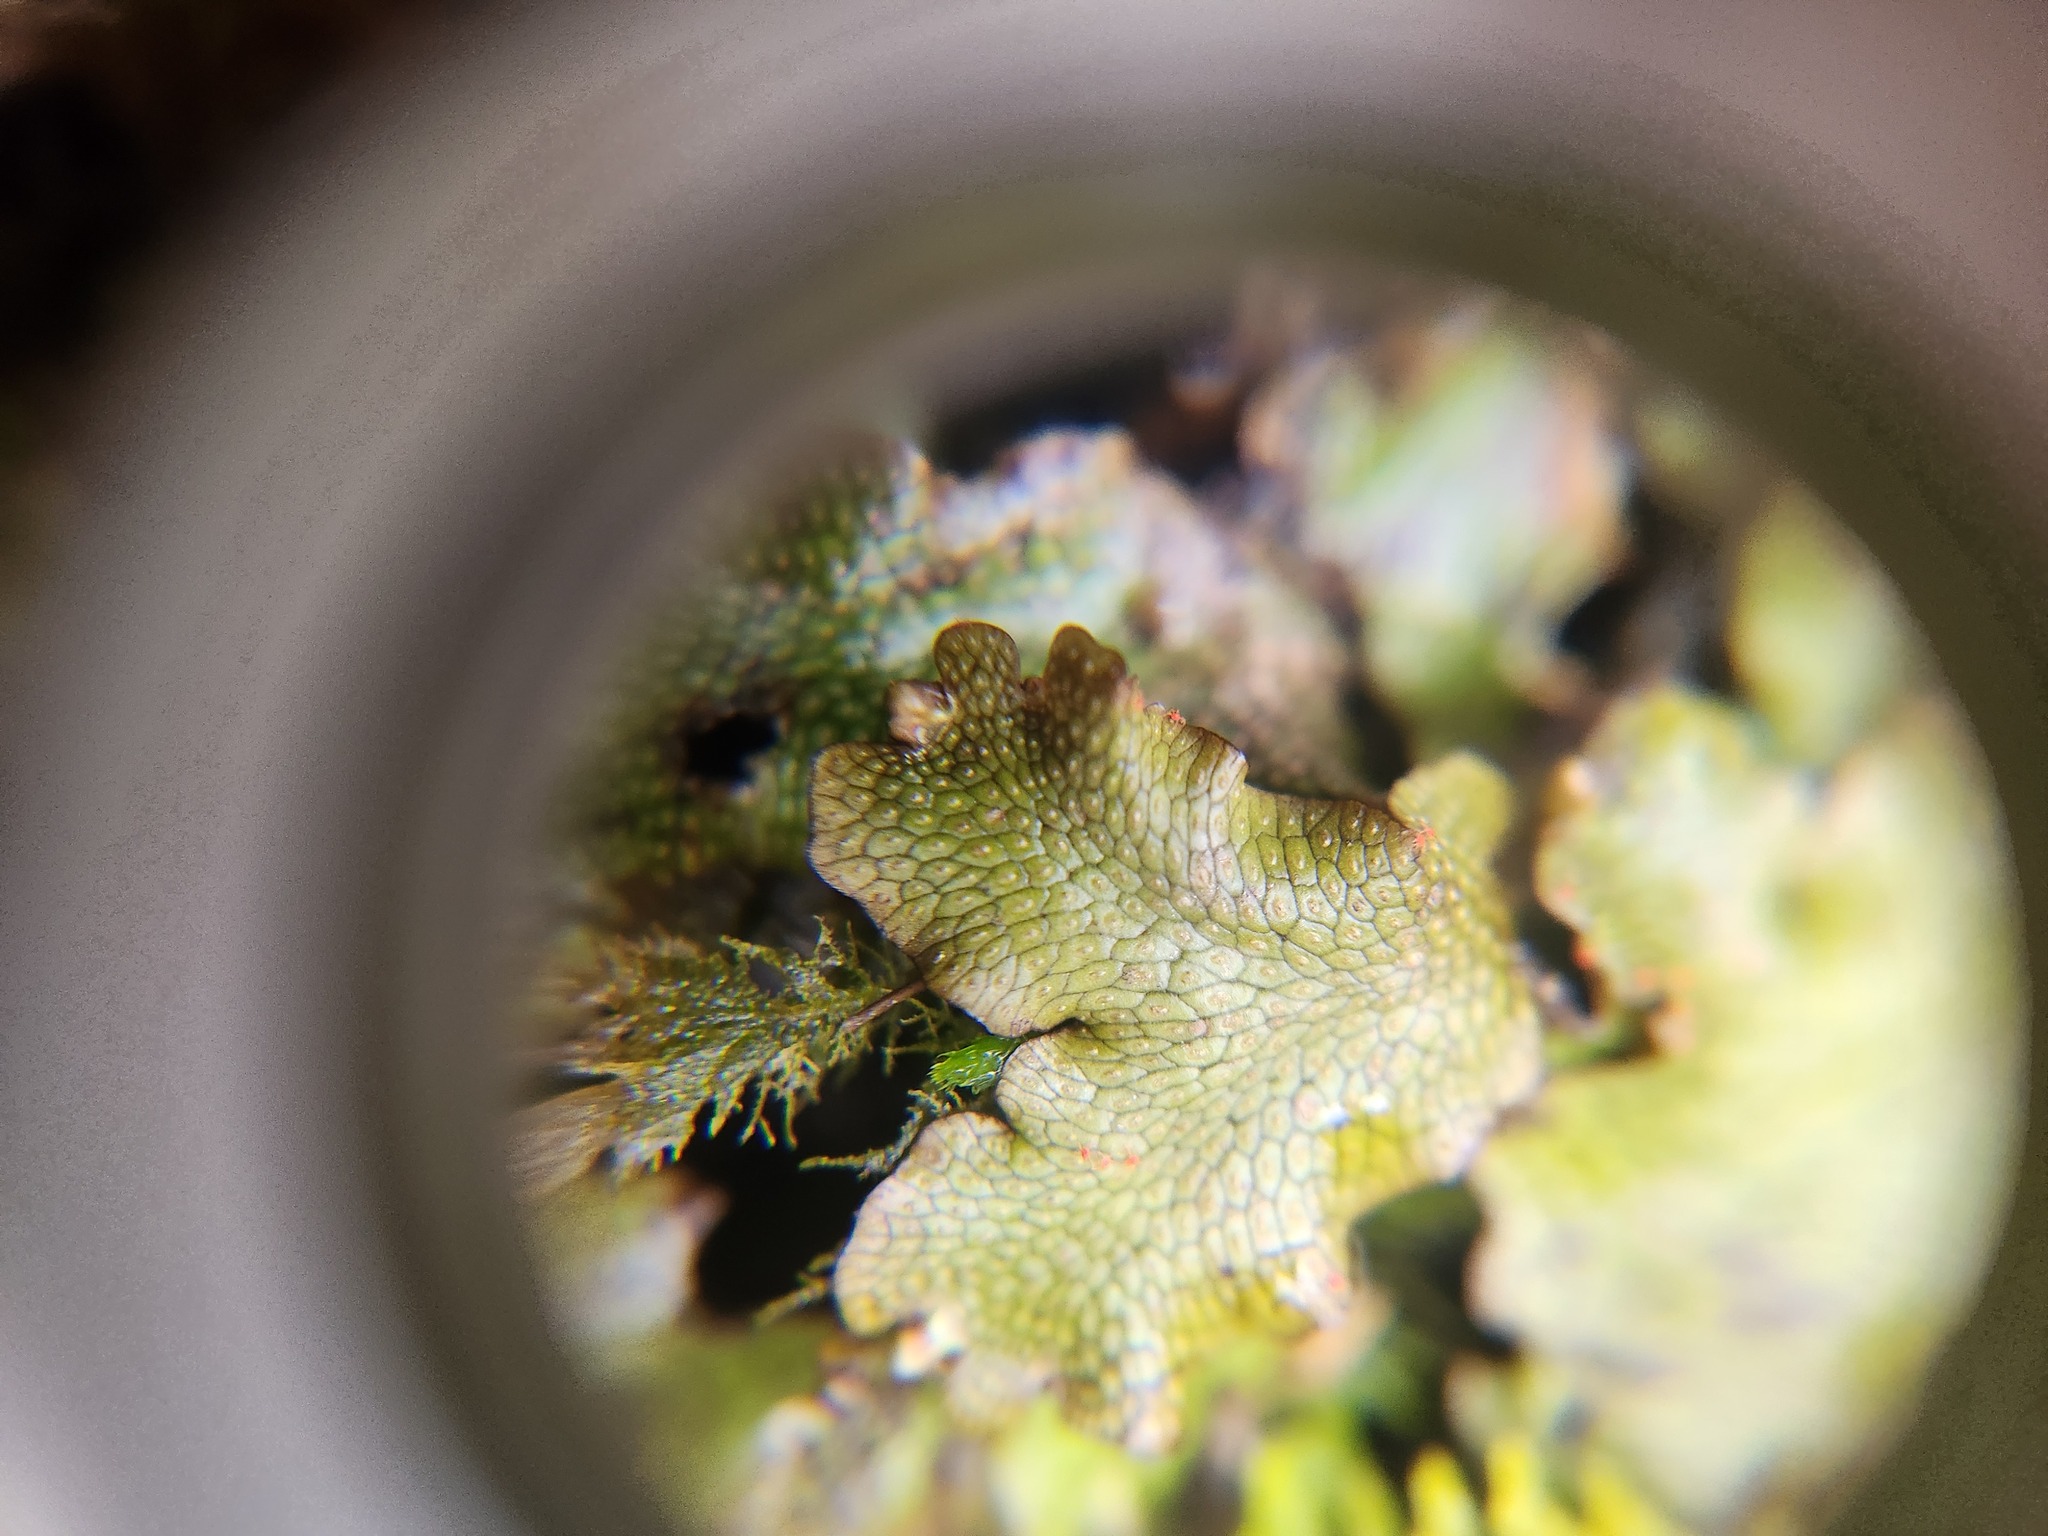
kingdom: Plantae
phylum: Marchantiophyta
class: Marchantiopsida
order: Marchantiales
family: Conocephalaceae
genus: Conocephalum
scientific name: Conocephalum salebrosum
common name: Cat-tongue liverwort
